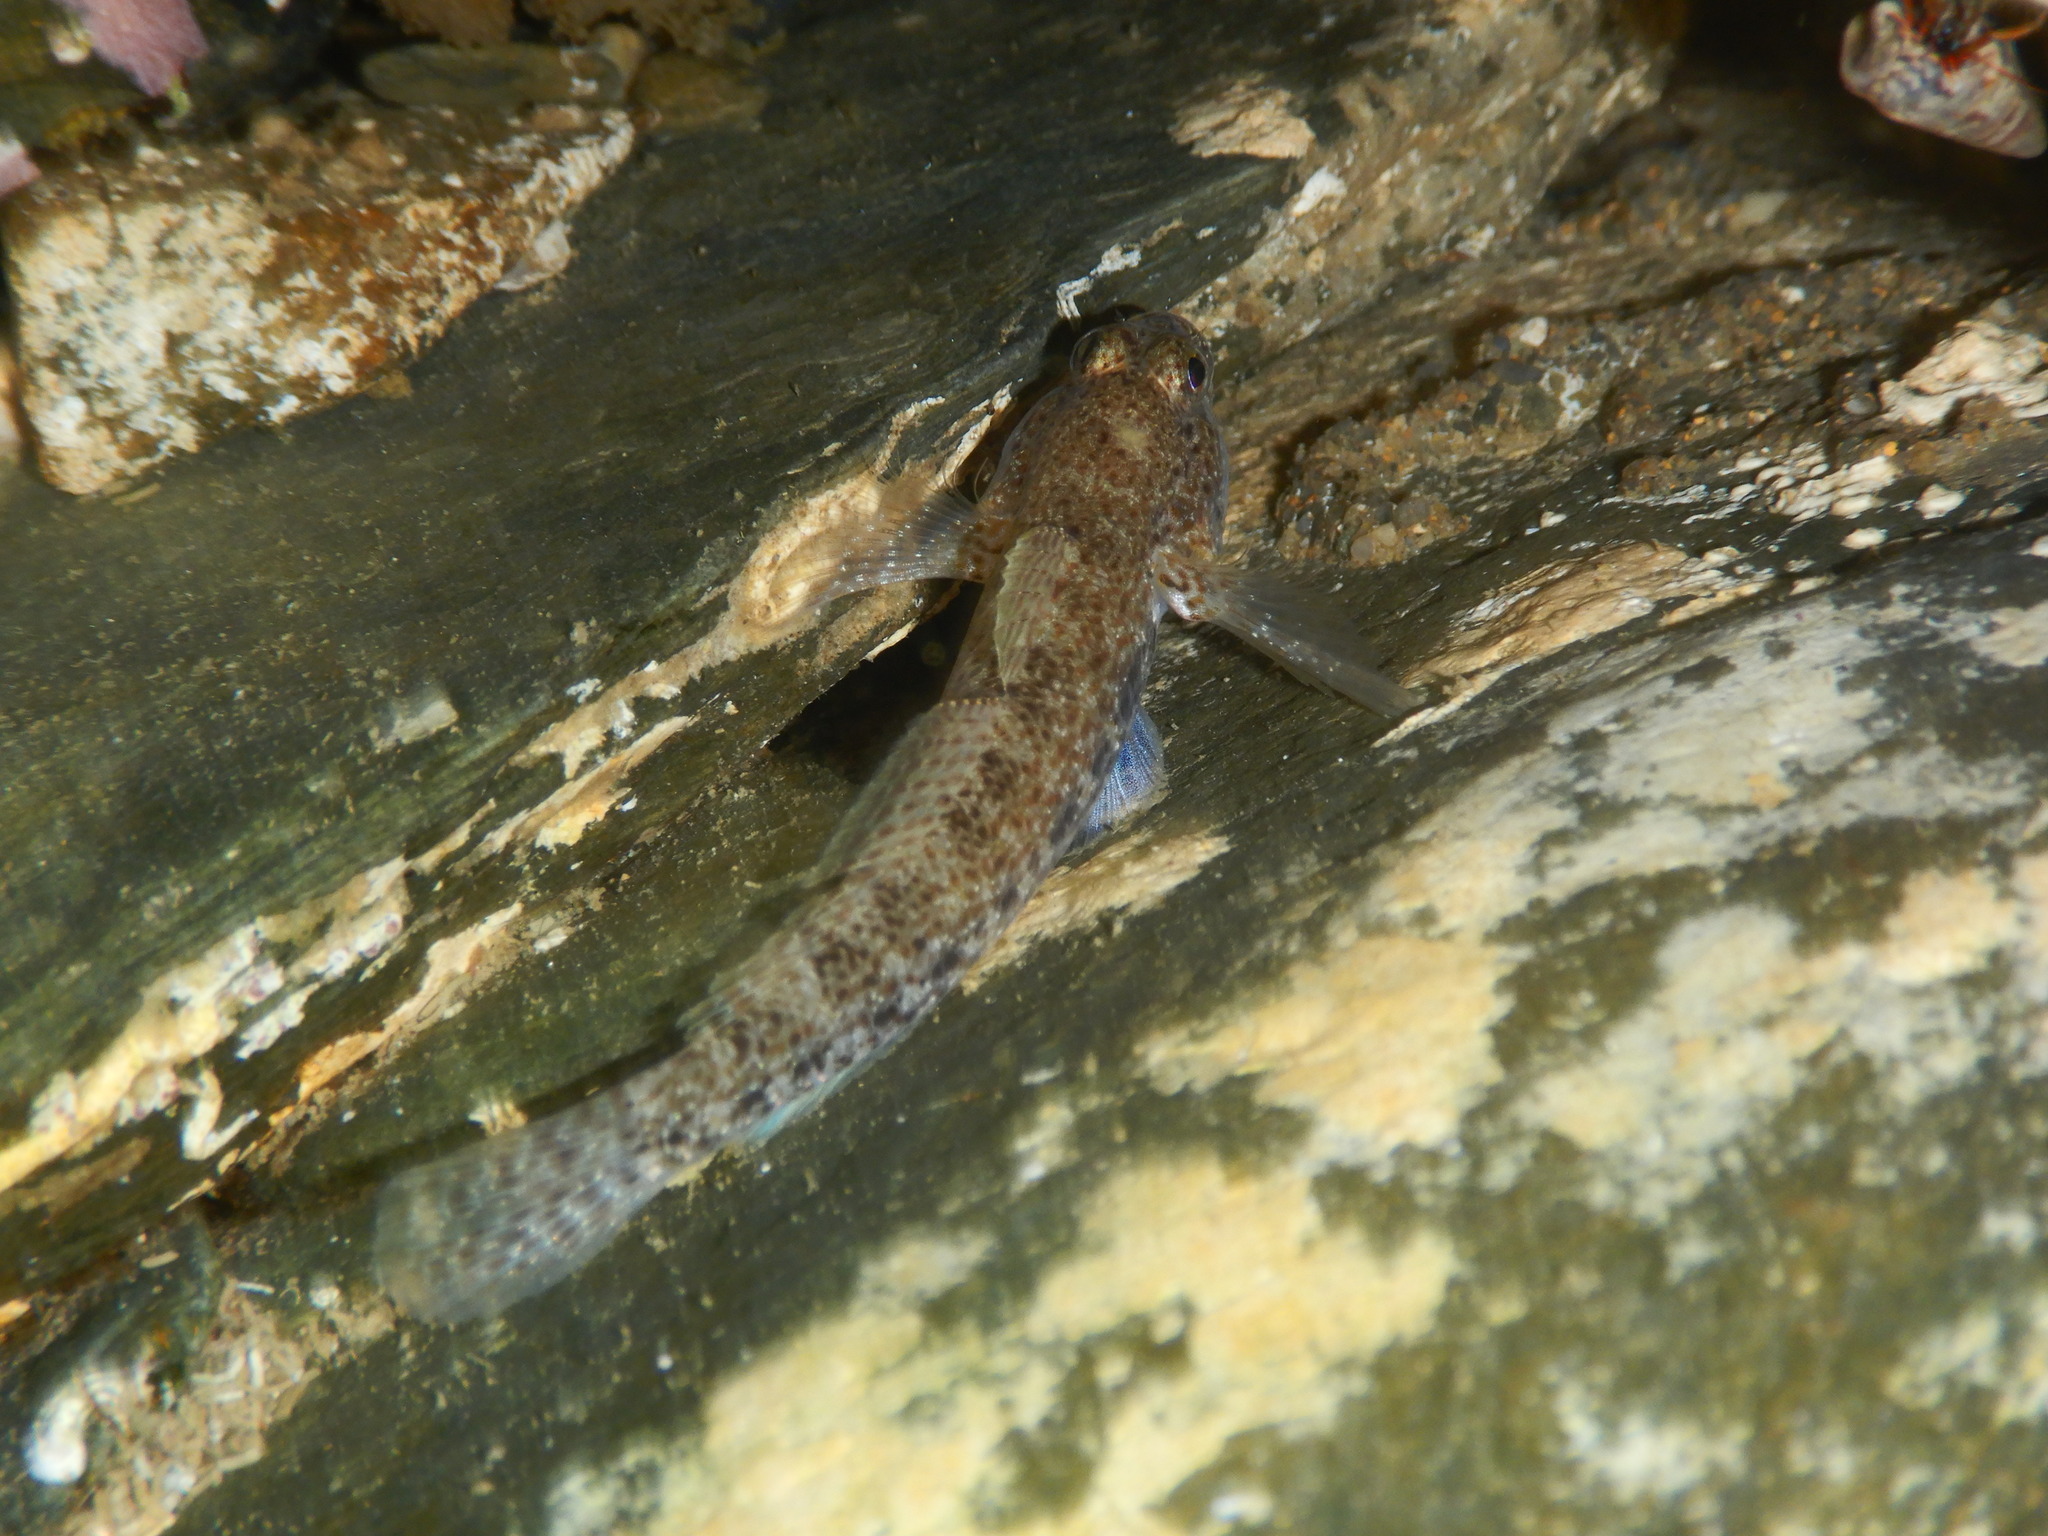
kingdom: Animalia
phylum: Chordata
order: Perciformes
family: Gobiidae
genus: Gobius
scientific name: Gobius incognitus
